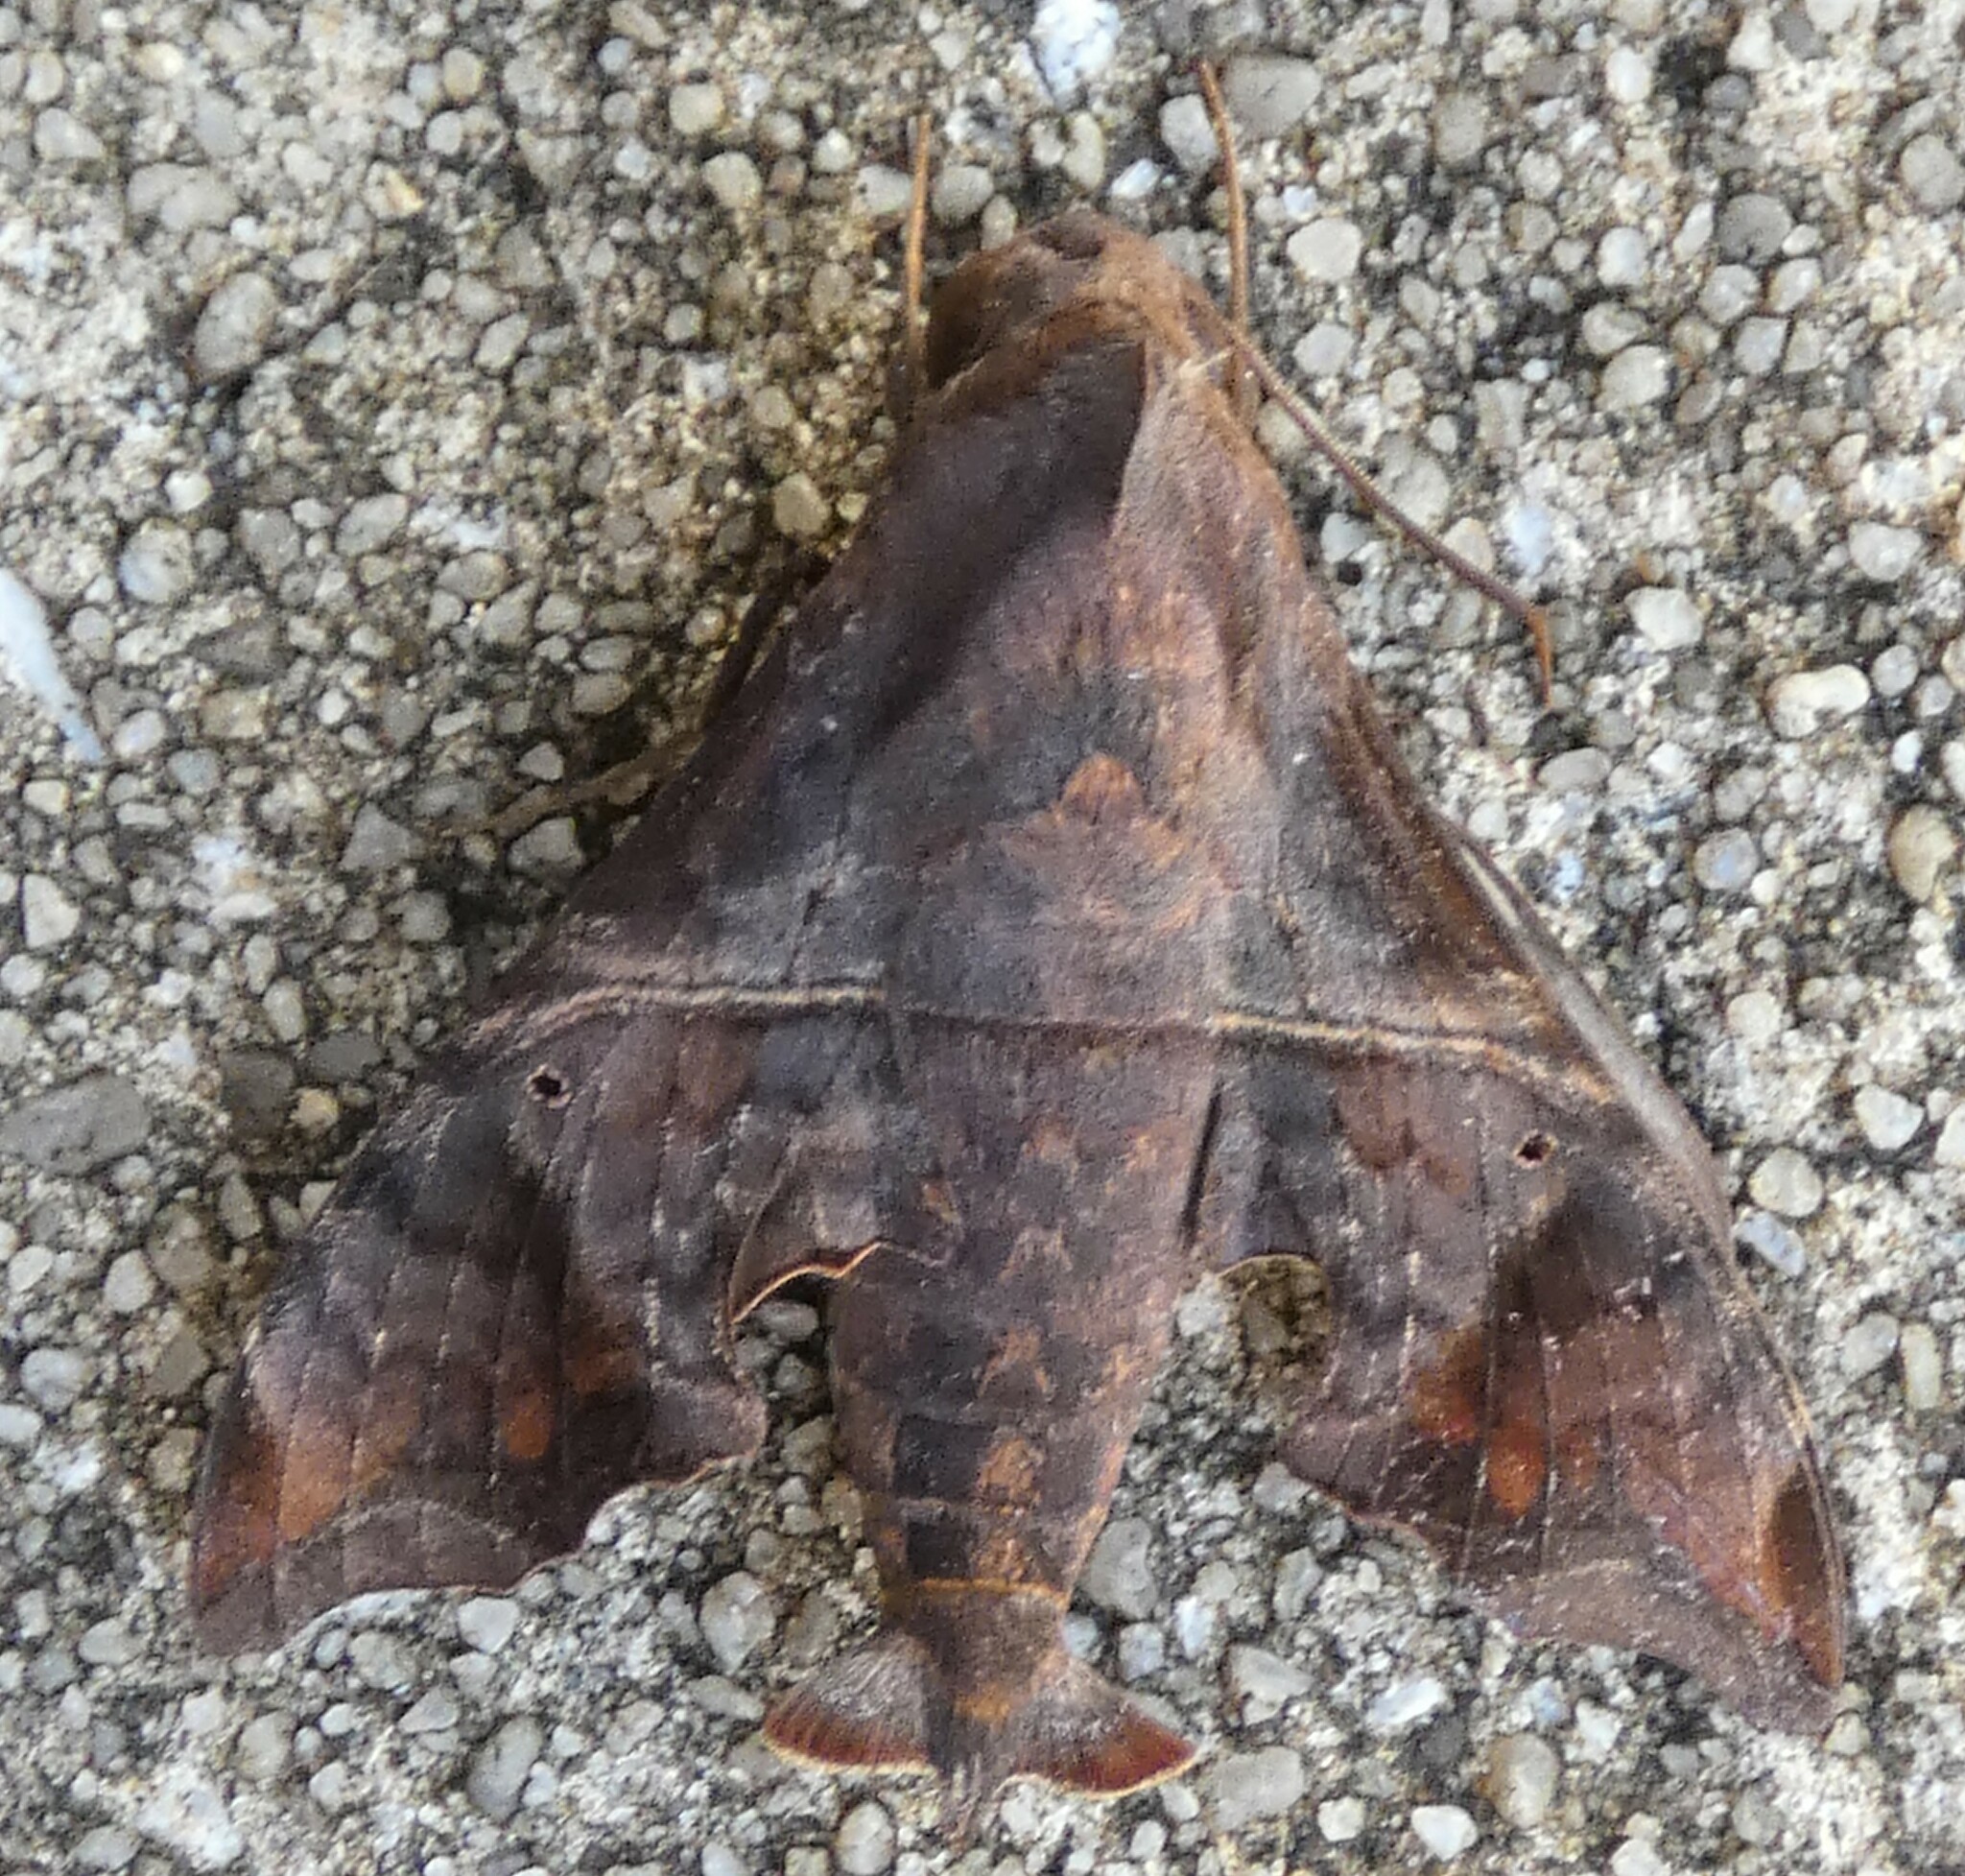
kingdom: Animalia
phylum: Arthropoda
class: Insecta
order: Lepidoptera
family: Sphingidae
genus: Enyo
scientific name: Enyo lugubris
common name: Mournful sphinx
